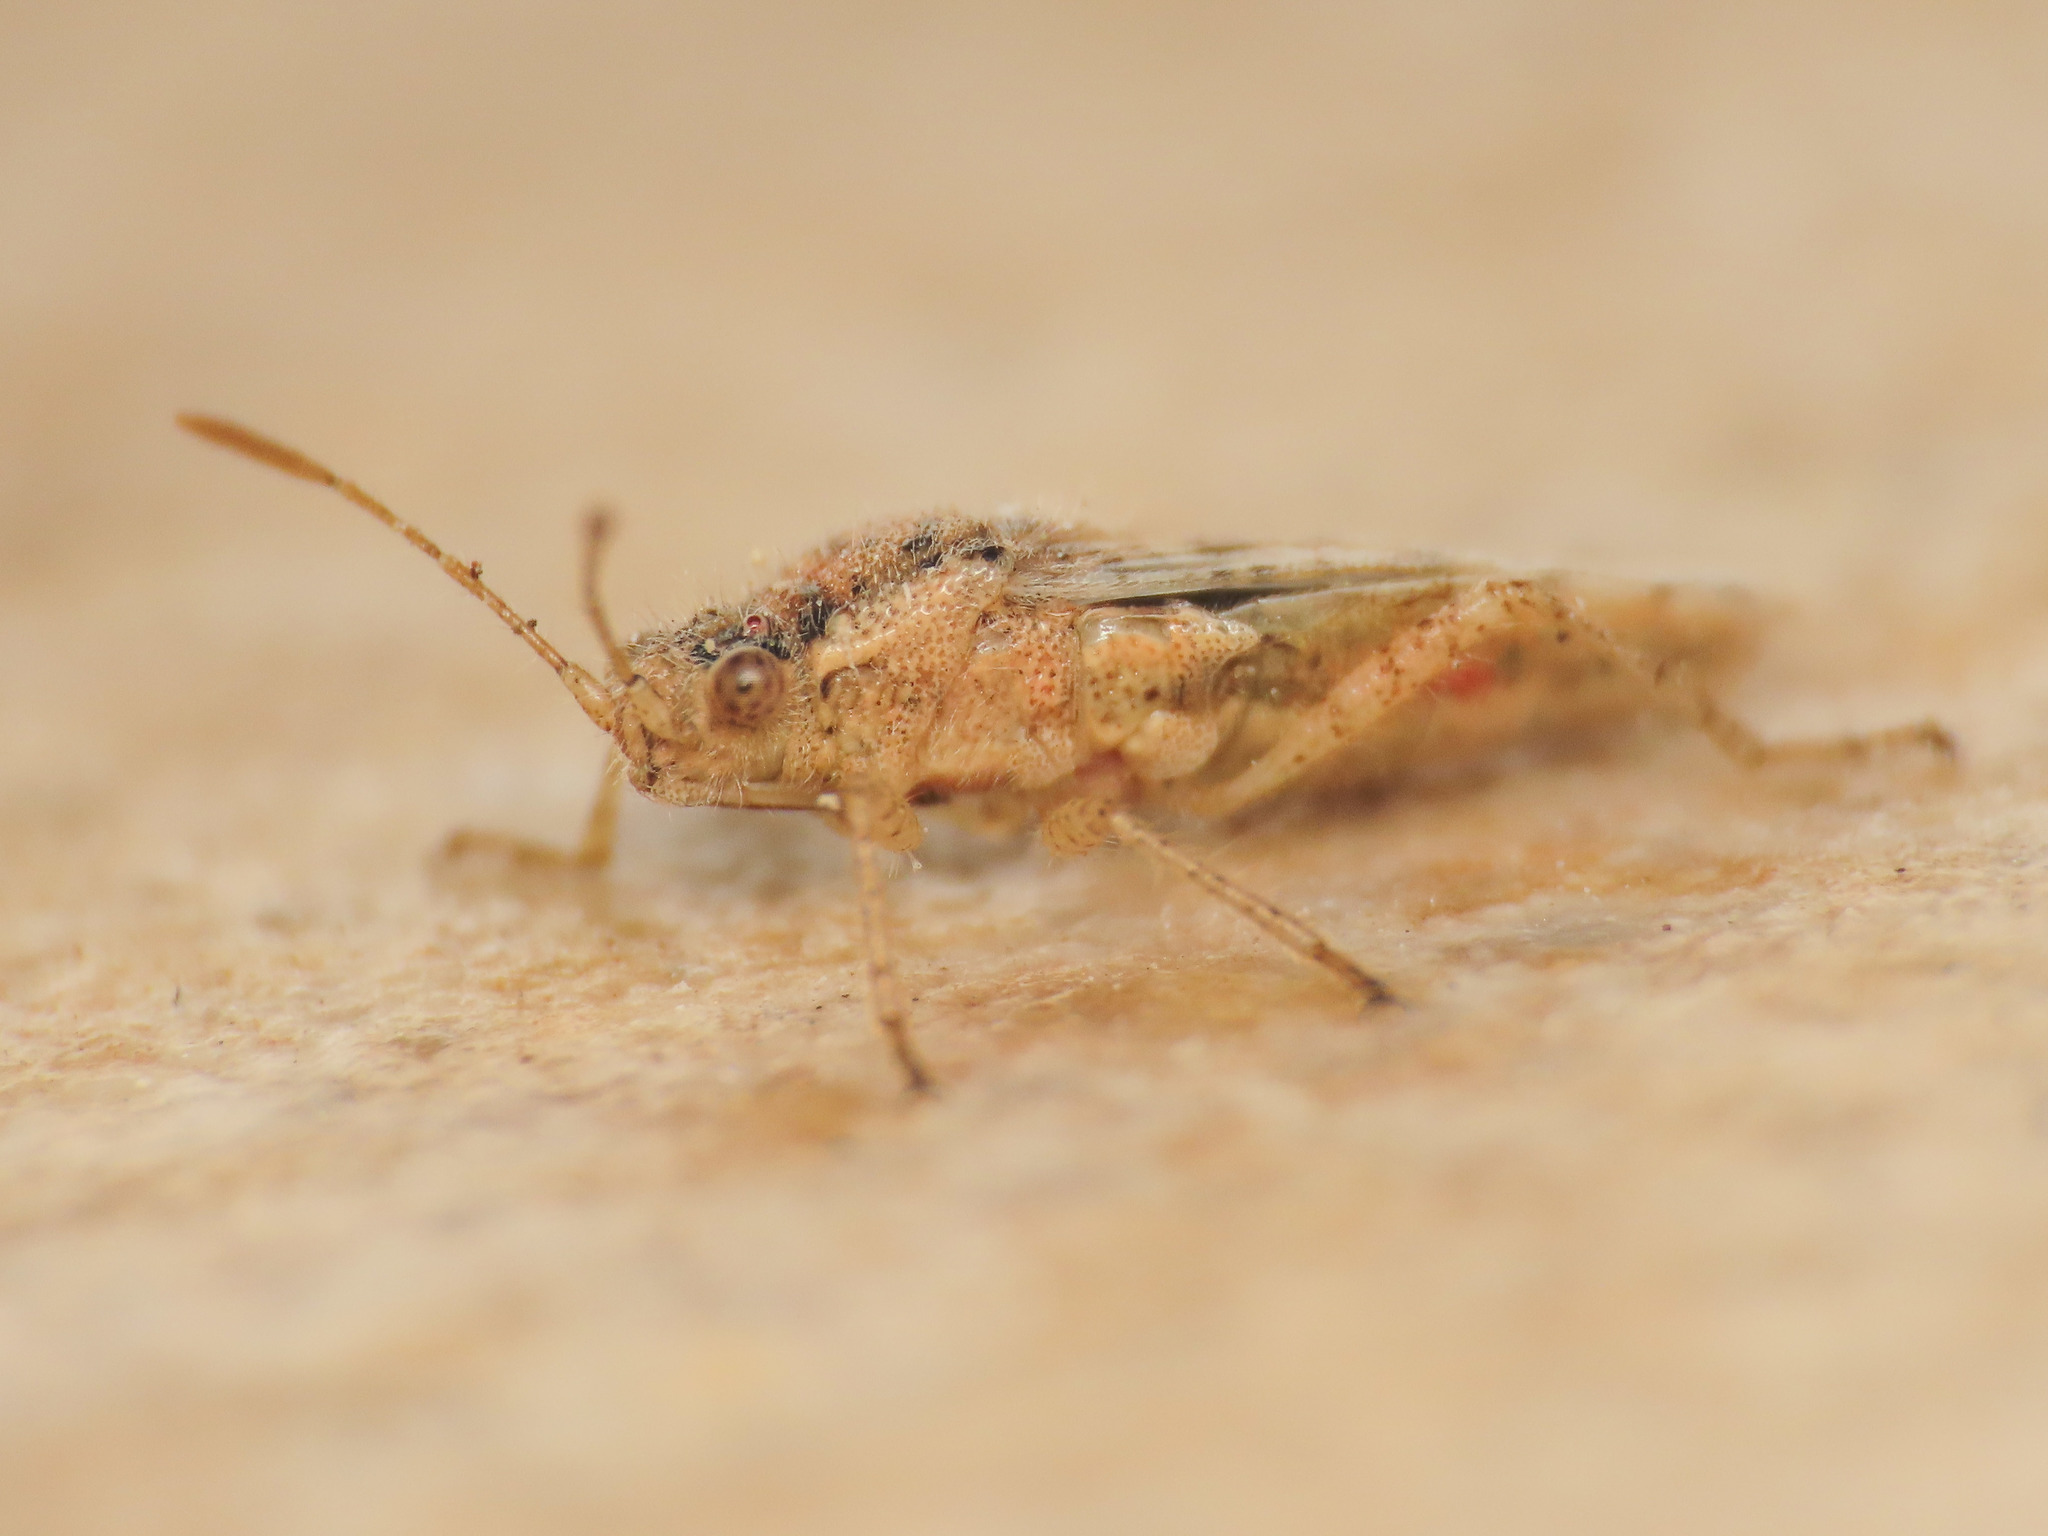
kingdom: Animalia
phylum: Arthropoda
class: Insecta
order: Hemiptera
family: Rhopalidae
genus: Brachycarenus
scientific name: Brachycarenus tigrinus
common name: Scentless plant bug
